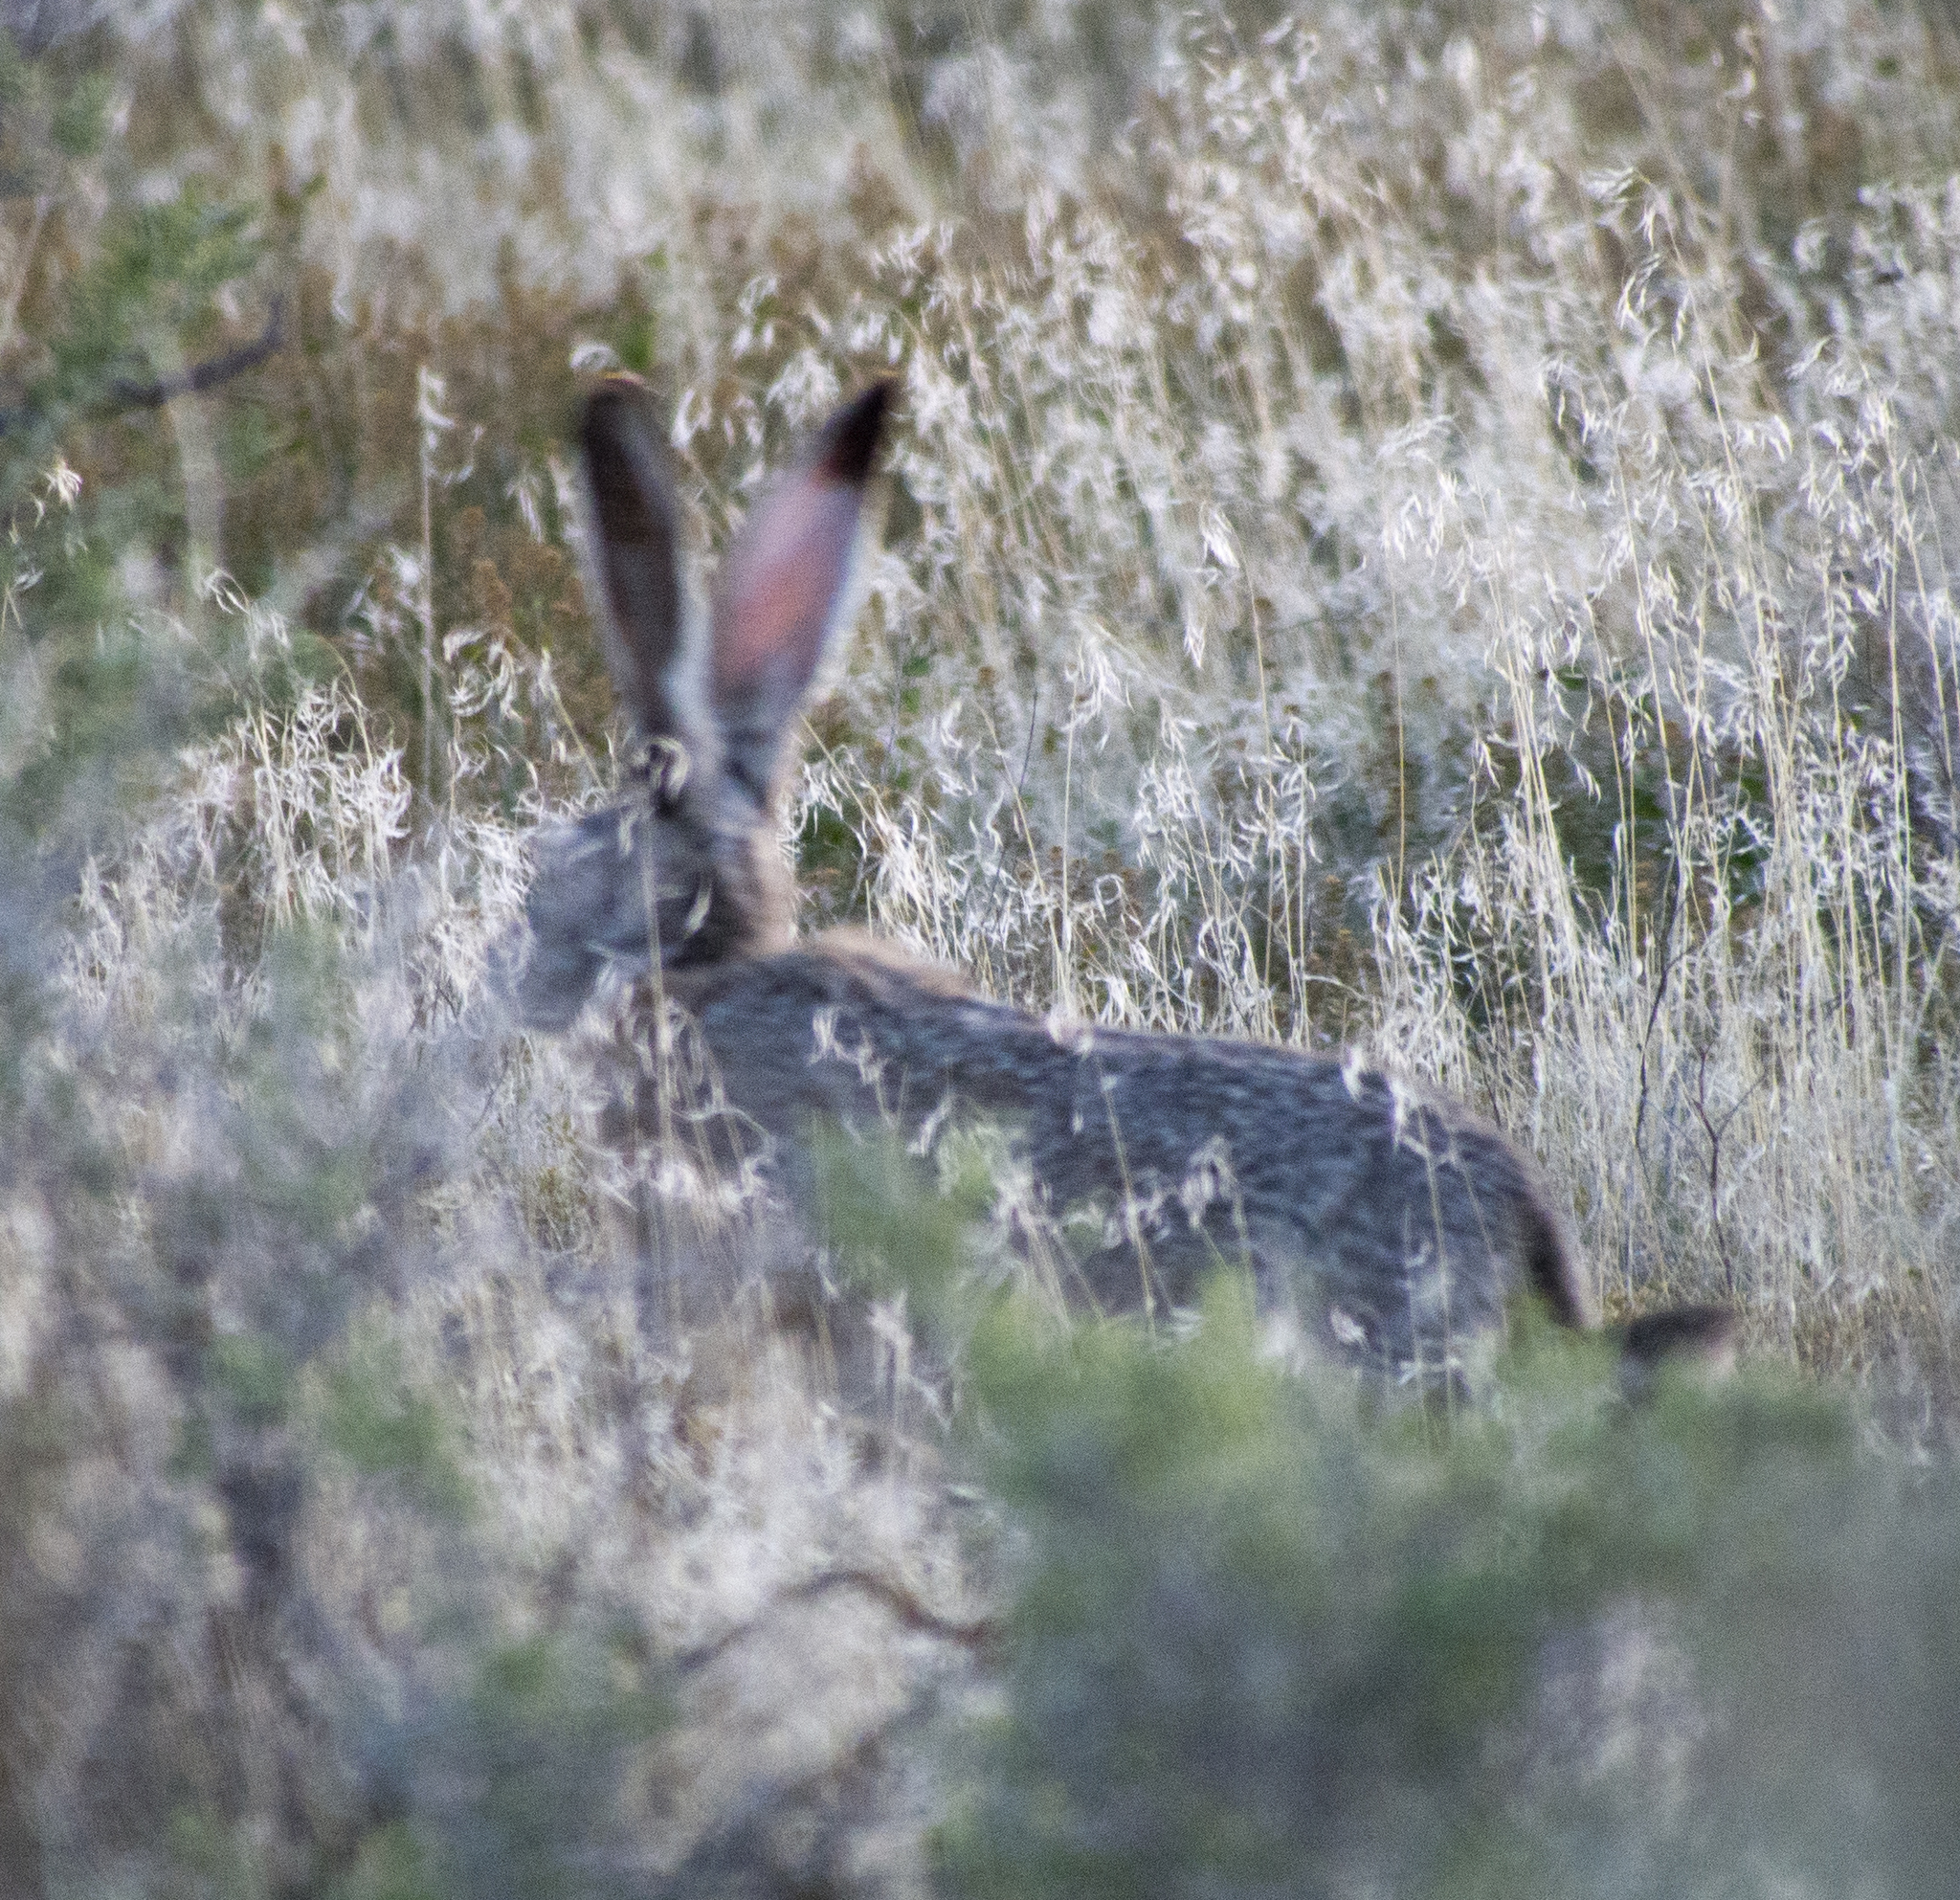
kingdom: Animalia
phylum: Chordata
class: Mammalia
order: Lagomorpha
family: Leporidae
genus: Lepus
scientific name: Lepus californicus
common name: Black-tailed jackrabbit
